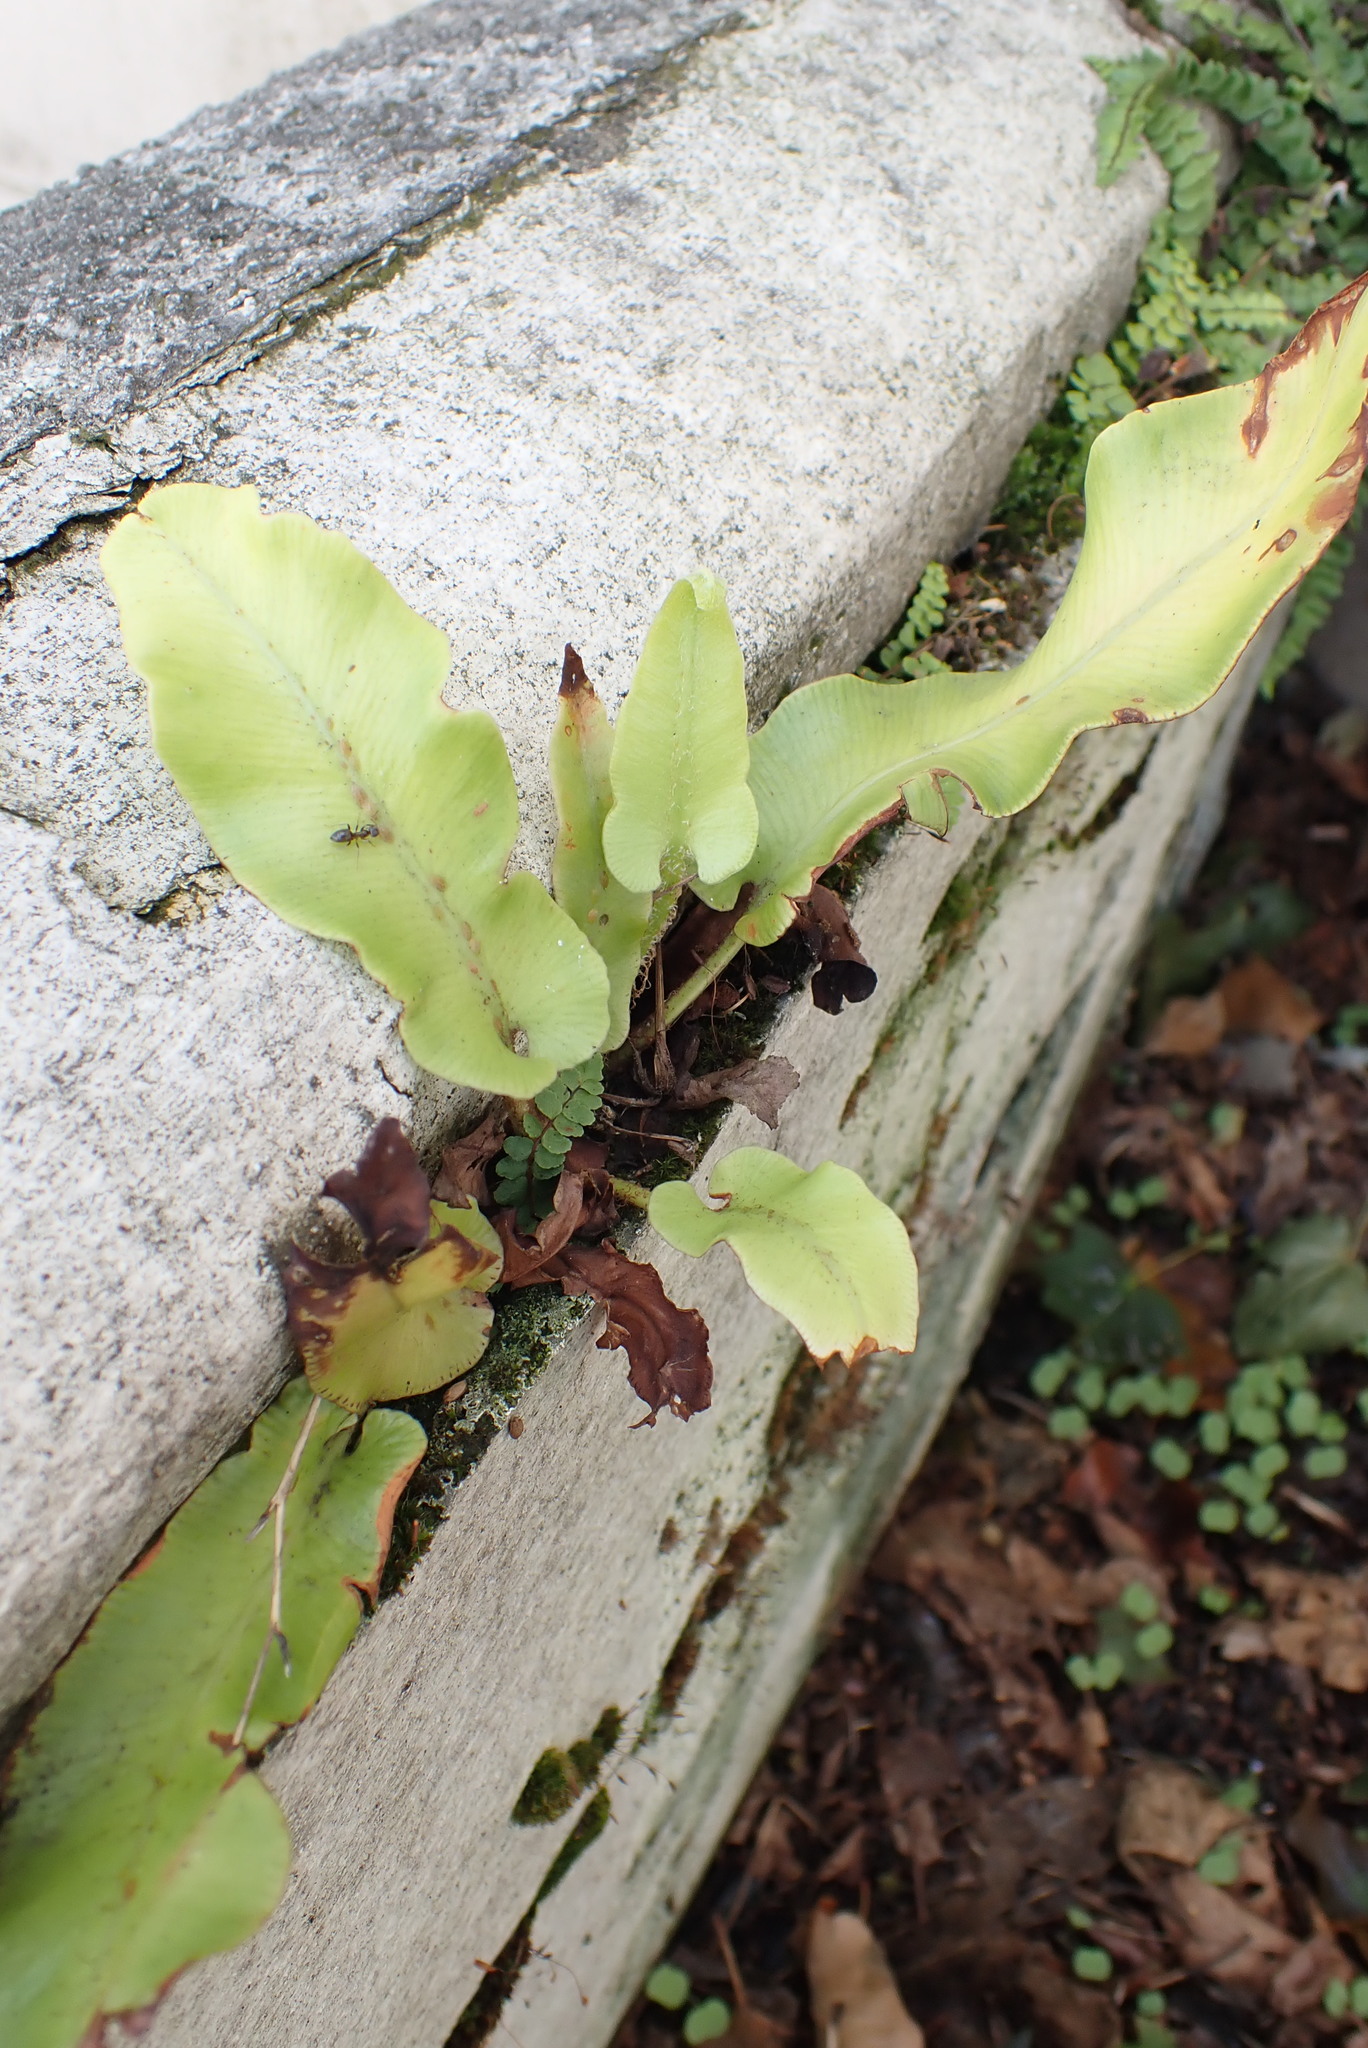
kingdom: Plantae
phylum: Tracheophyta
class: Polypodiopsida
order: Polypodiales
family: Aspleniaceae
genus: Asplenium
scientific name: Asplenium scolopendrium
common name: Hart's-tongue fern
